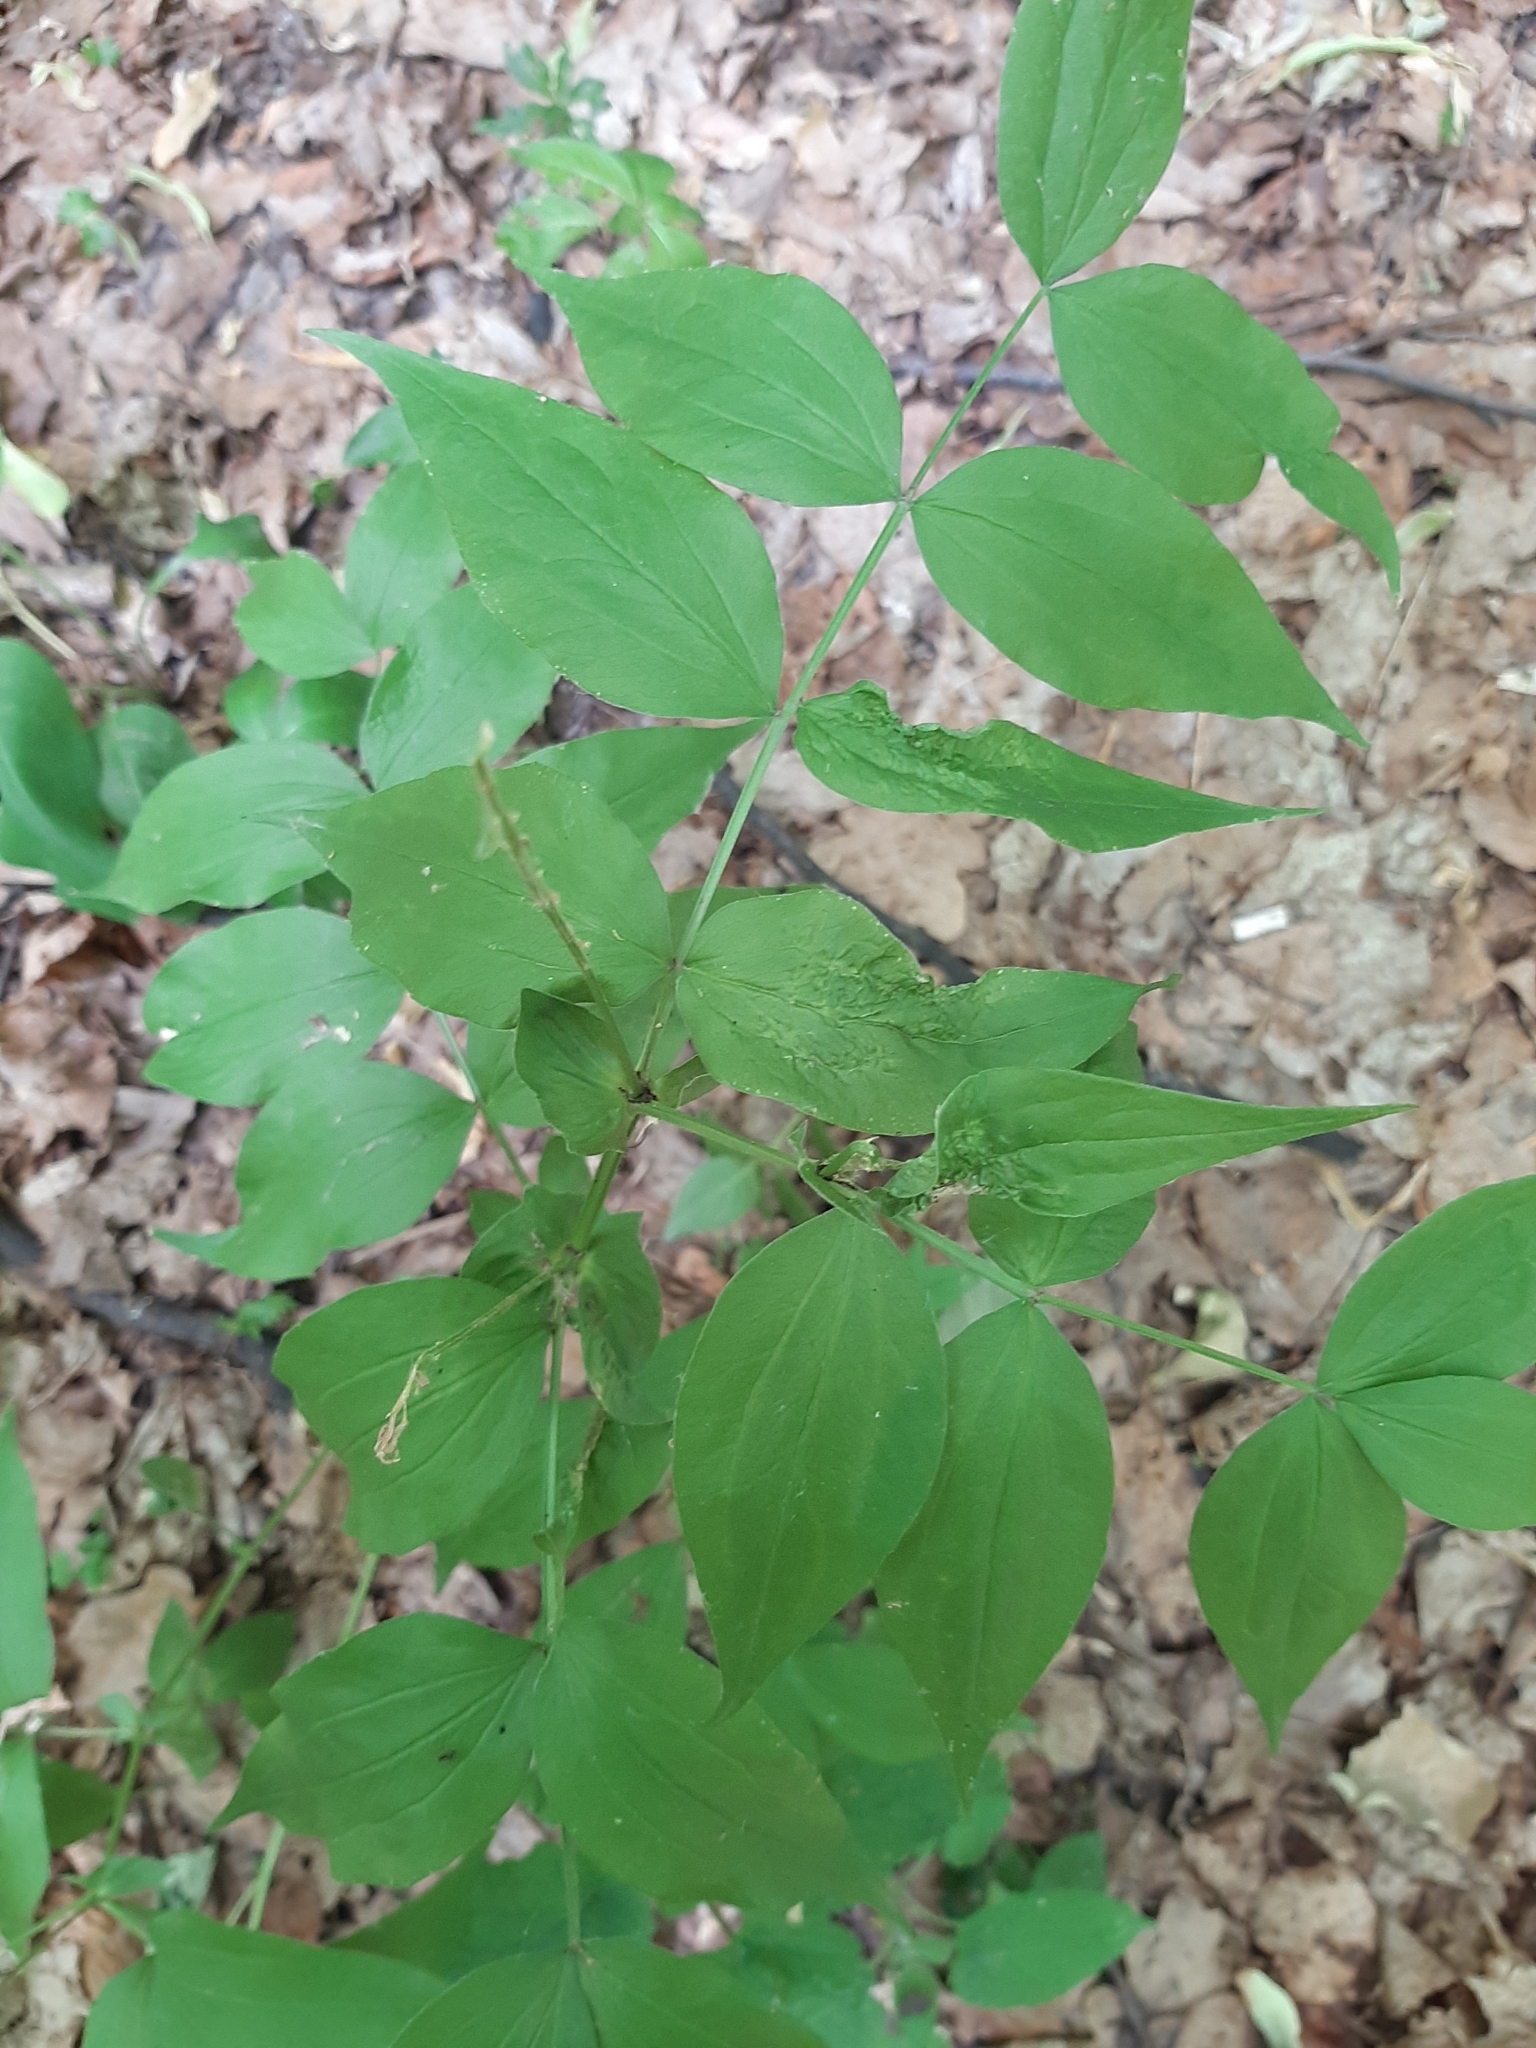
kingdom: Plantae
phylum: Tracheophyta
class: Magnoliopsida
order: Fabales
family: Fabaceae
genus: Lathyrus
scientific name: Lathyrus vernus
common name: Spring pea
